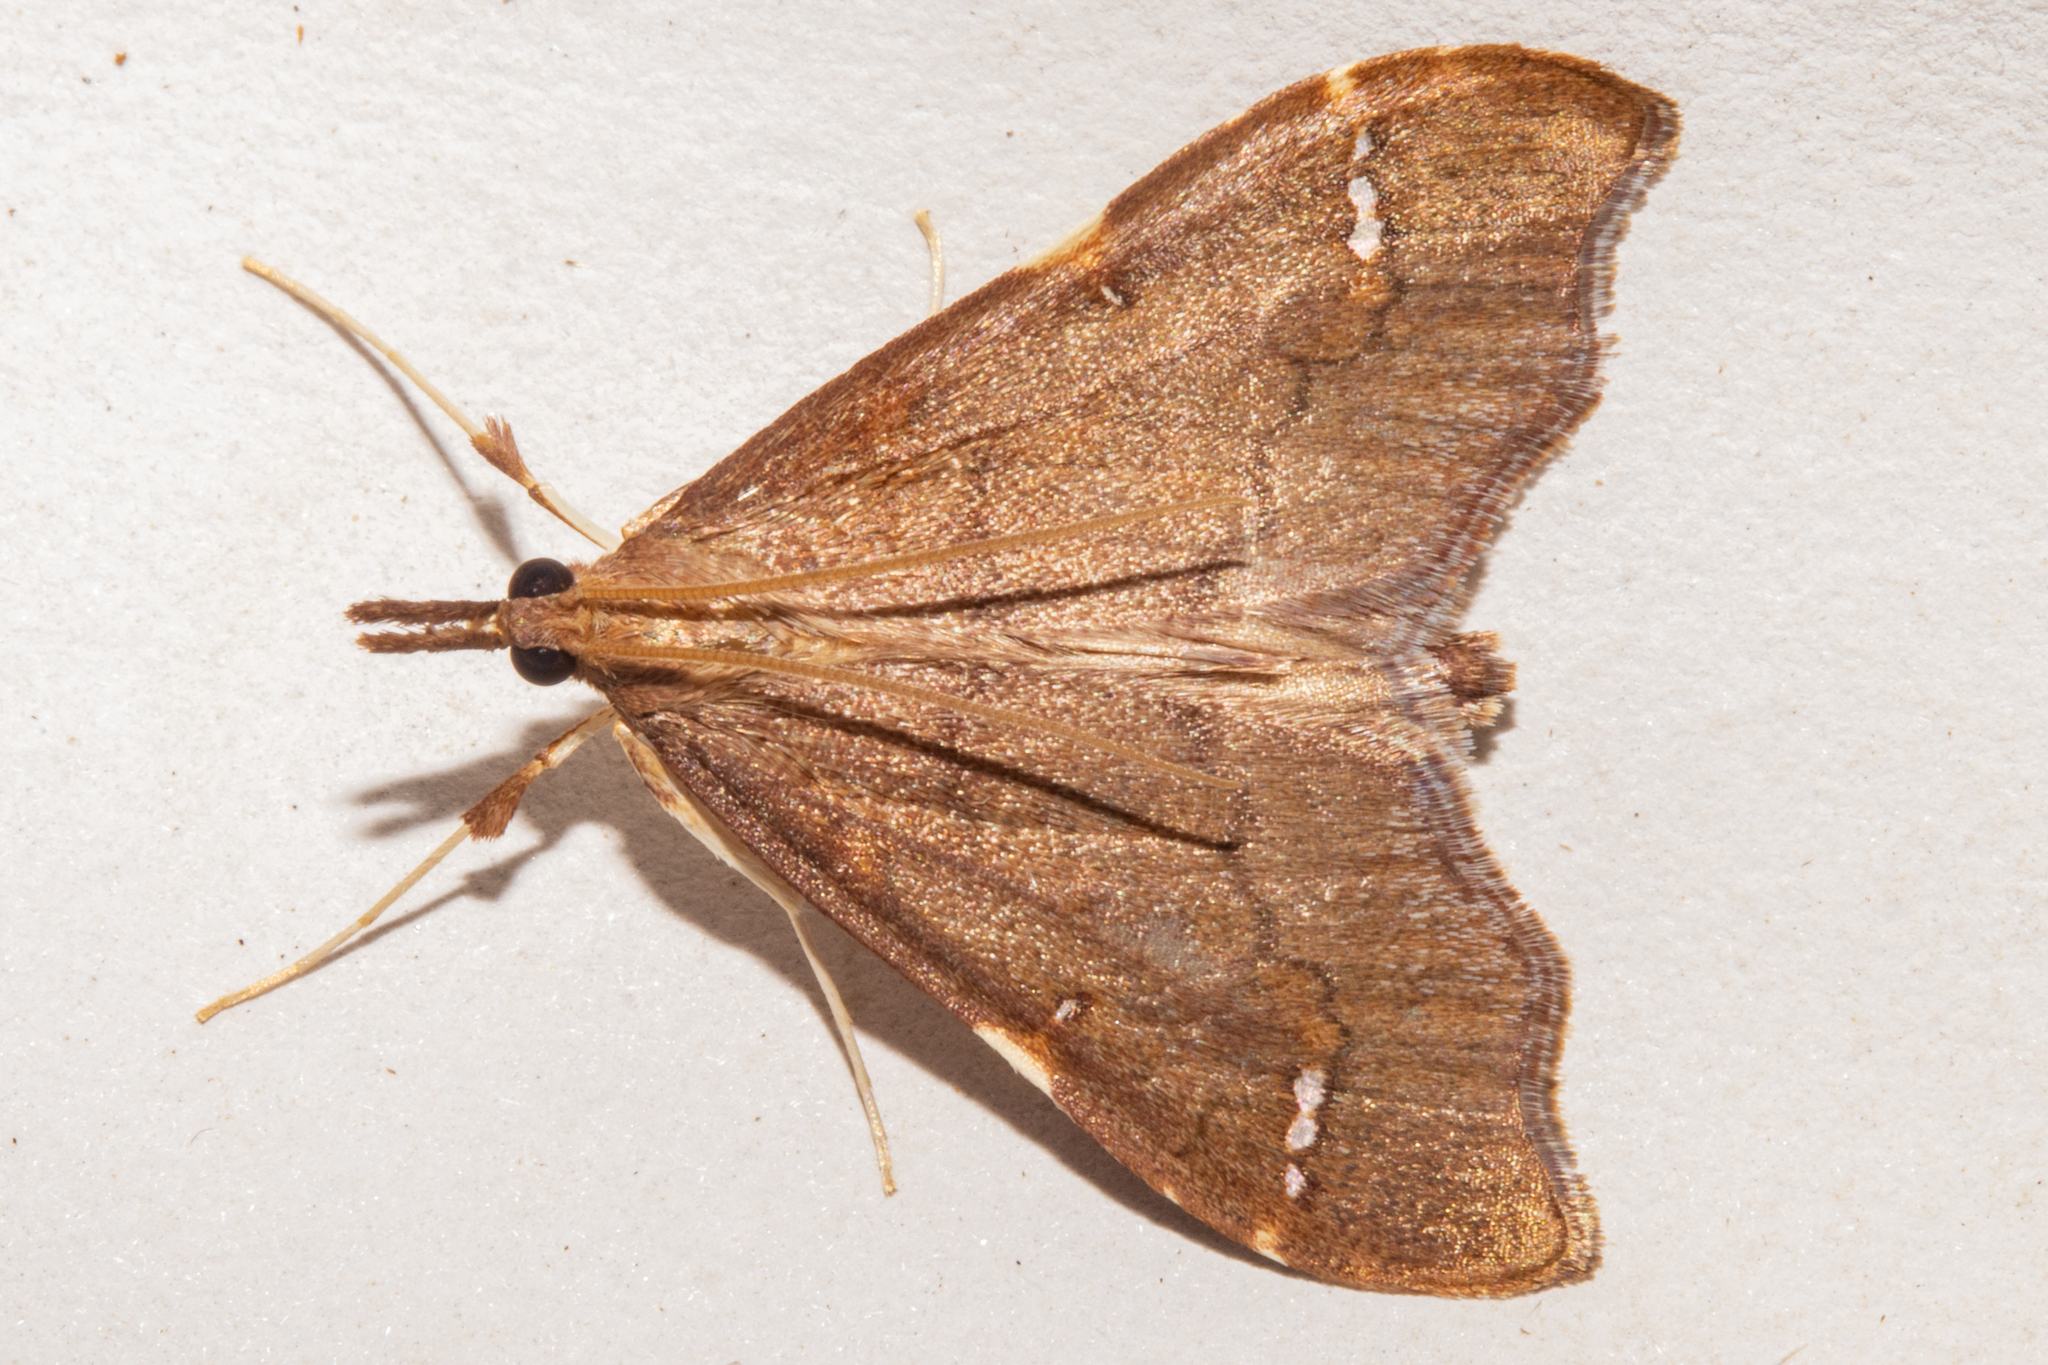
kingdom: Animalia
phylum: Arthropoda
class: Insecta
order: Lepidoptera
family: Crambidae
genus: Deana
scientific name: Deana hybreasalis
